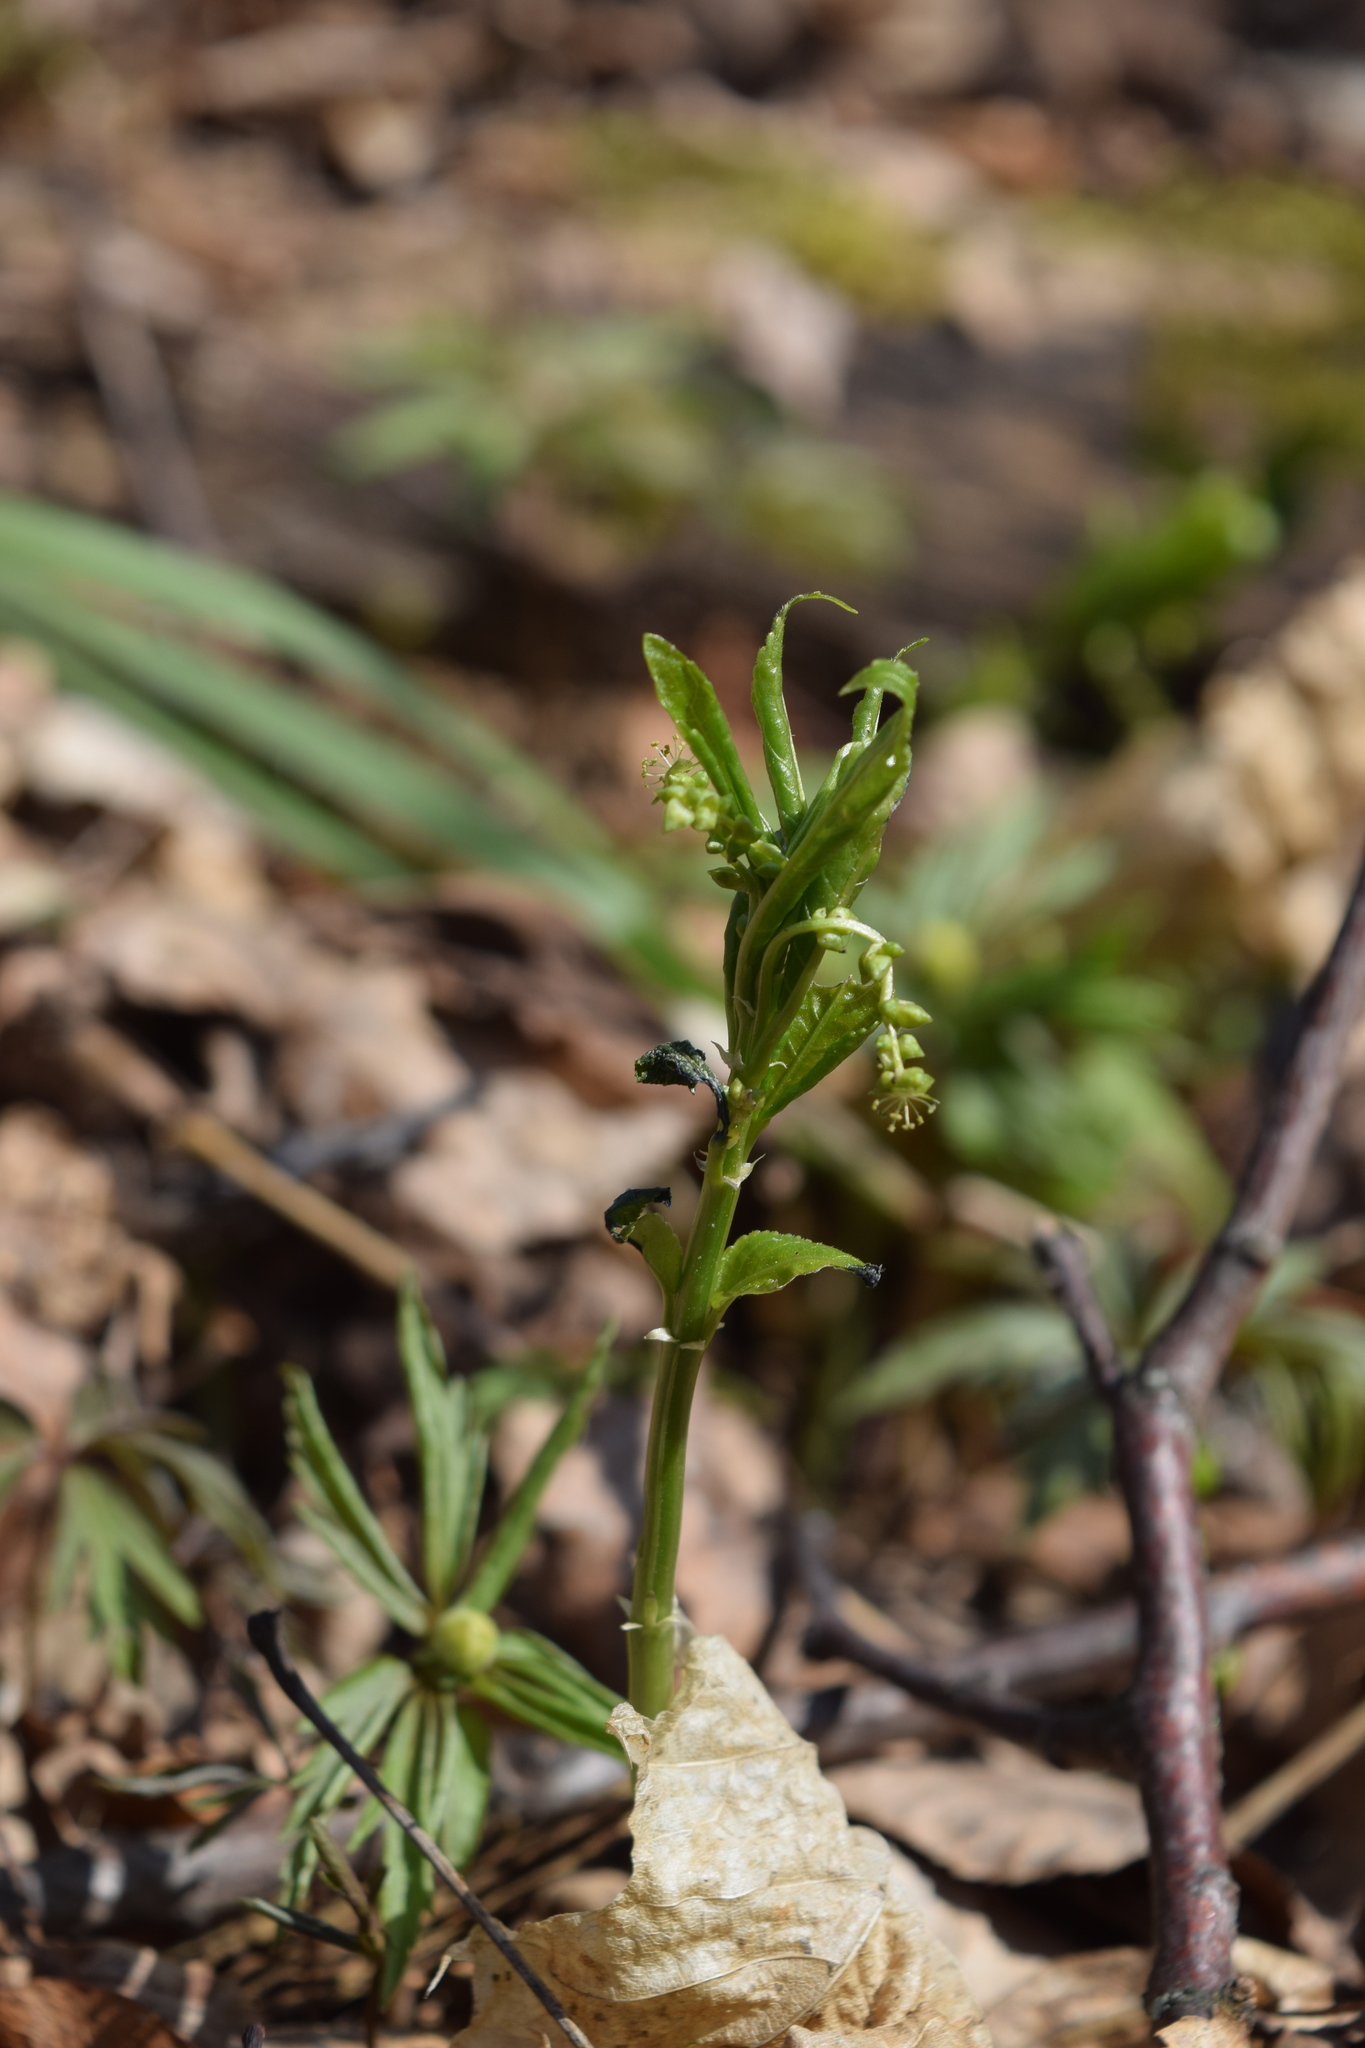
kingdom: Plantae
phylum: Tracheophyta
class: Magnoliopsida
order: Malpighiales
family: Euphorbiaceae
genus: Mercurialis
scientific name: Mercurialis perennis
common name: Dog mercury
